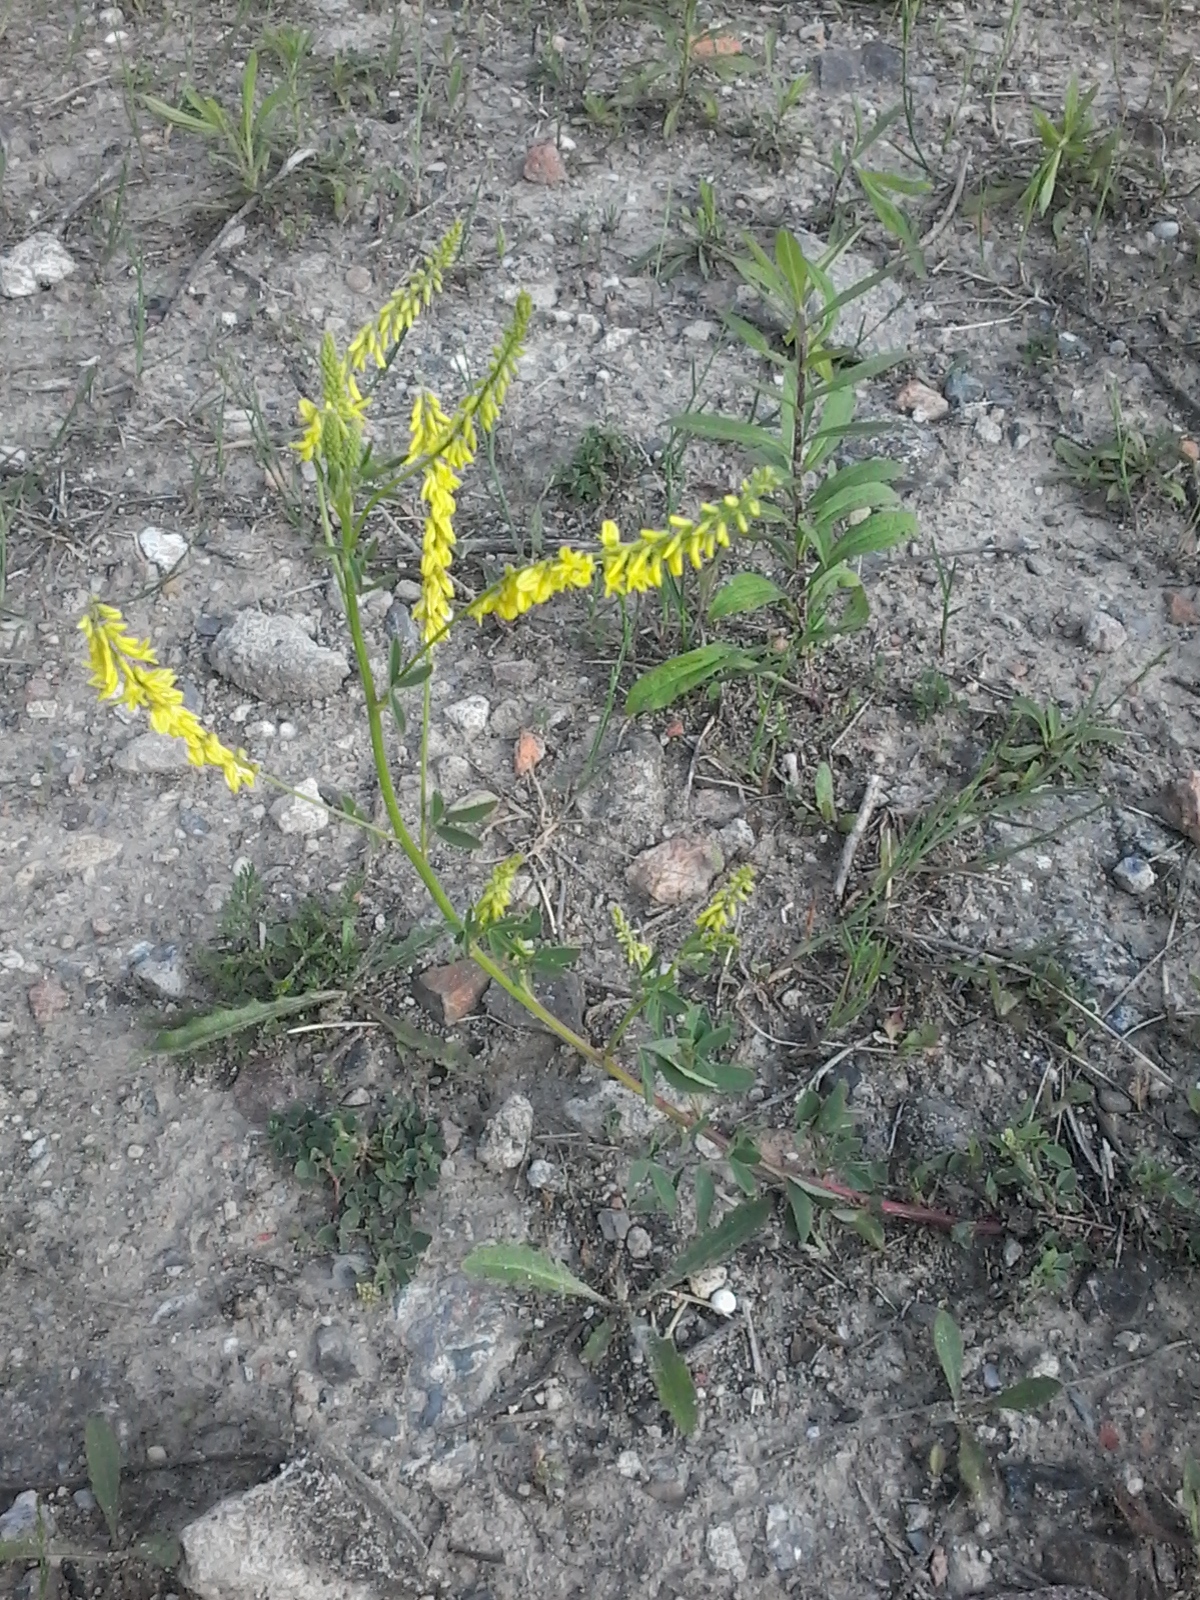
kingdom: Plantae
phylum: Tracheophyta
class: Magnoliopsida
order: Fabales
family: Fabaceae
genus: Melilotus
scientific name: Melilotus officinalis
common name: Sweetclover
